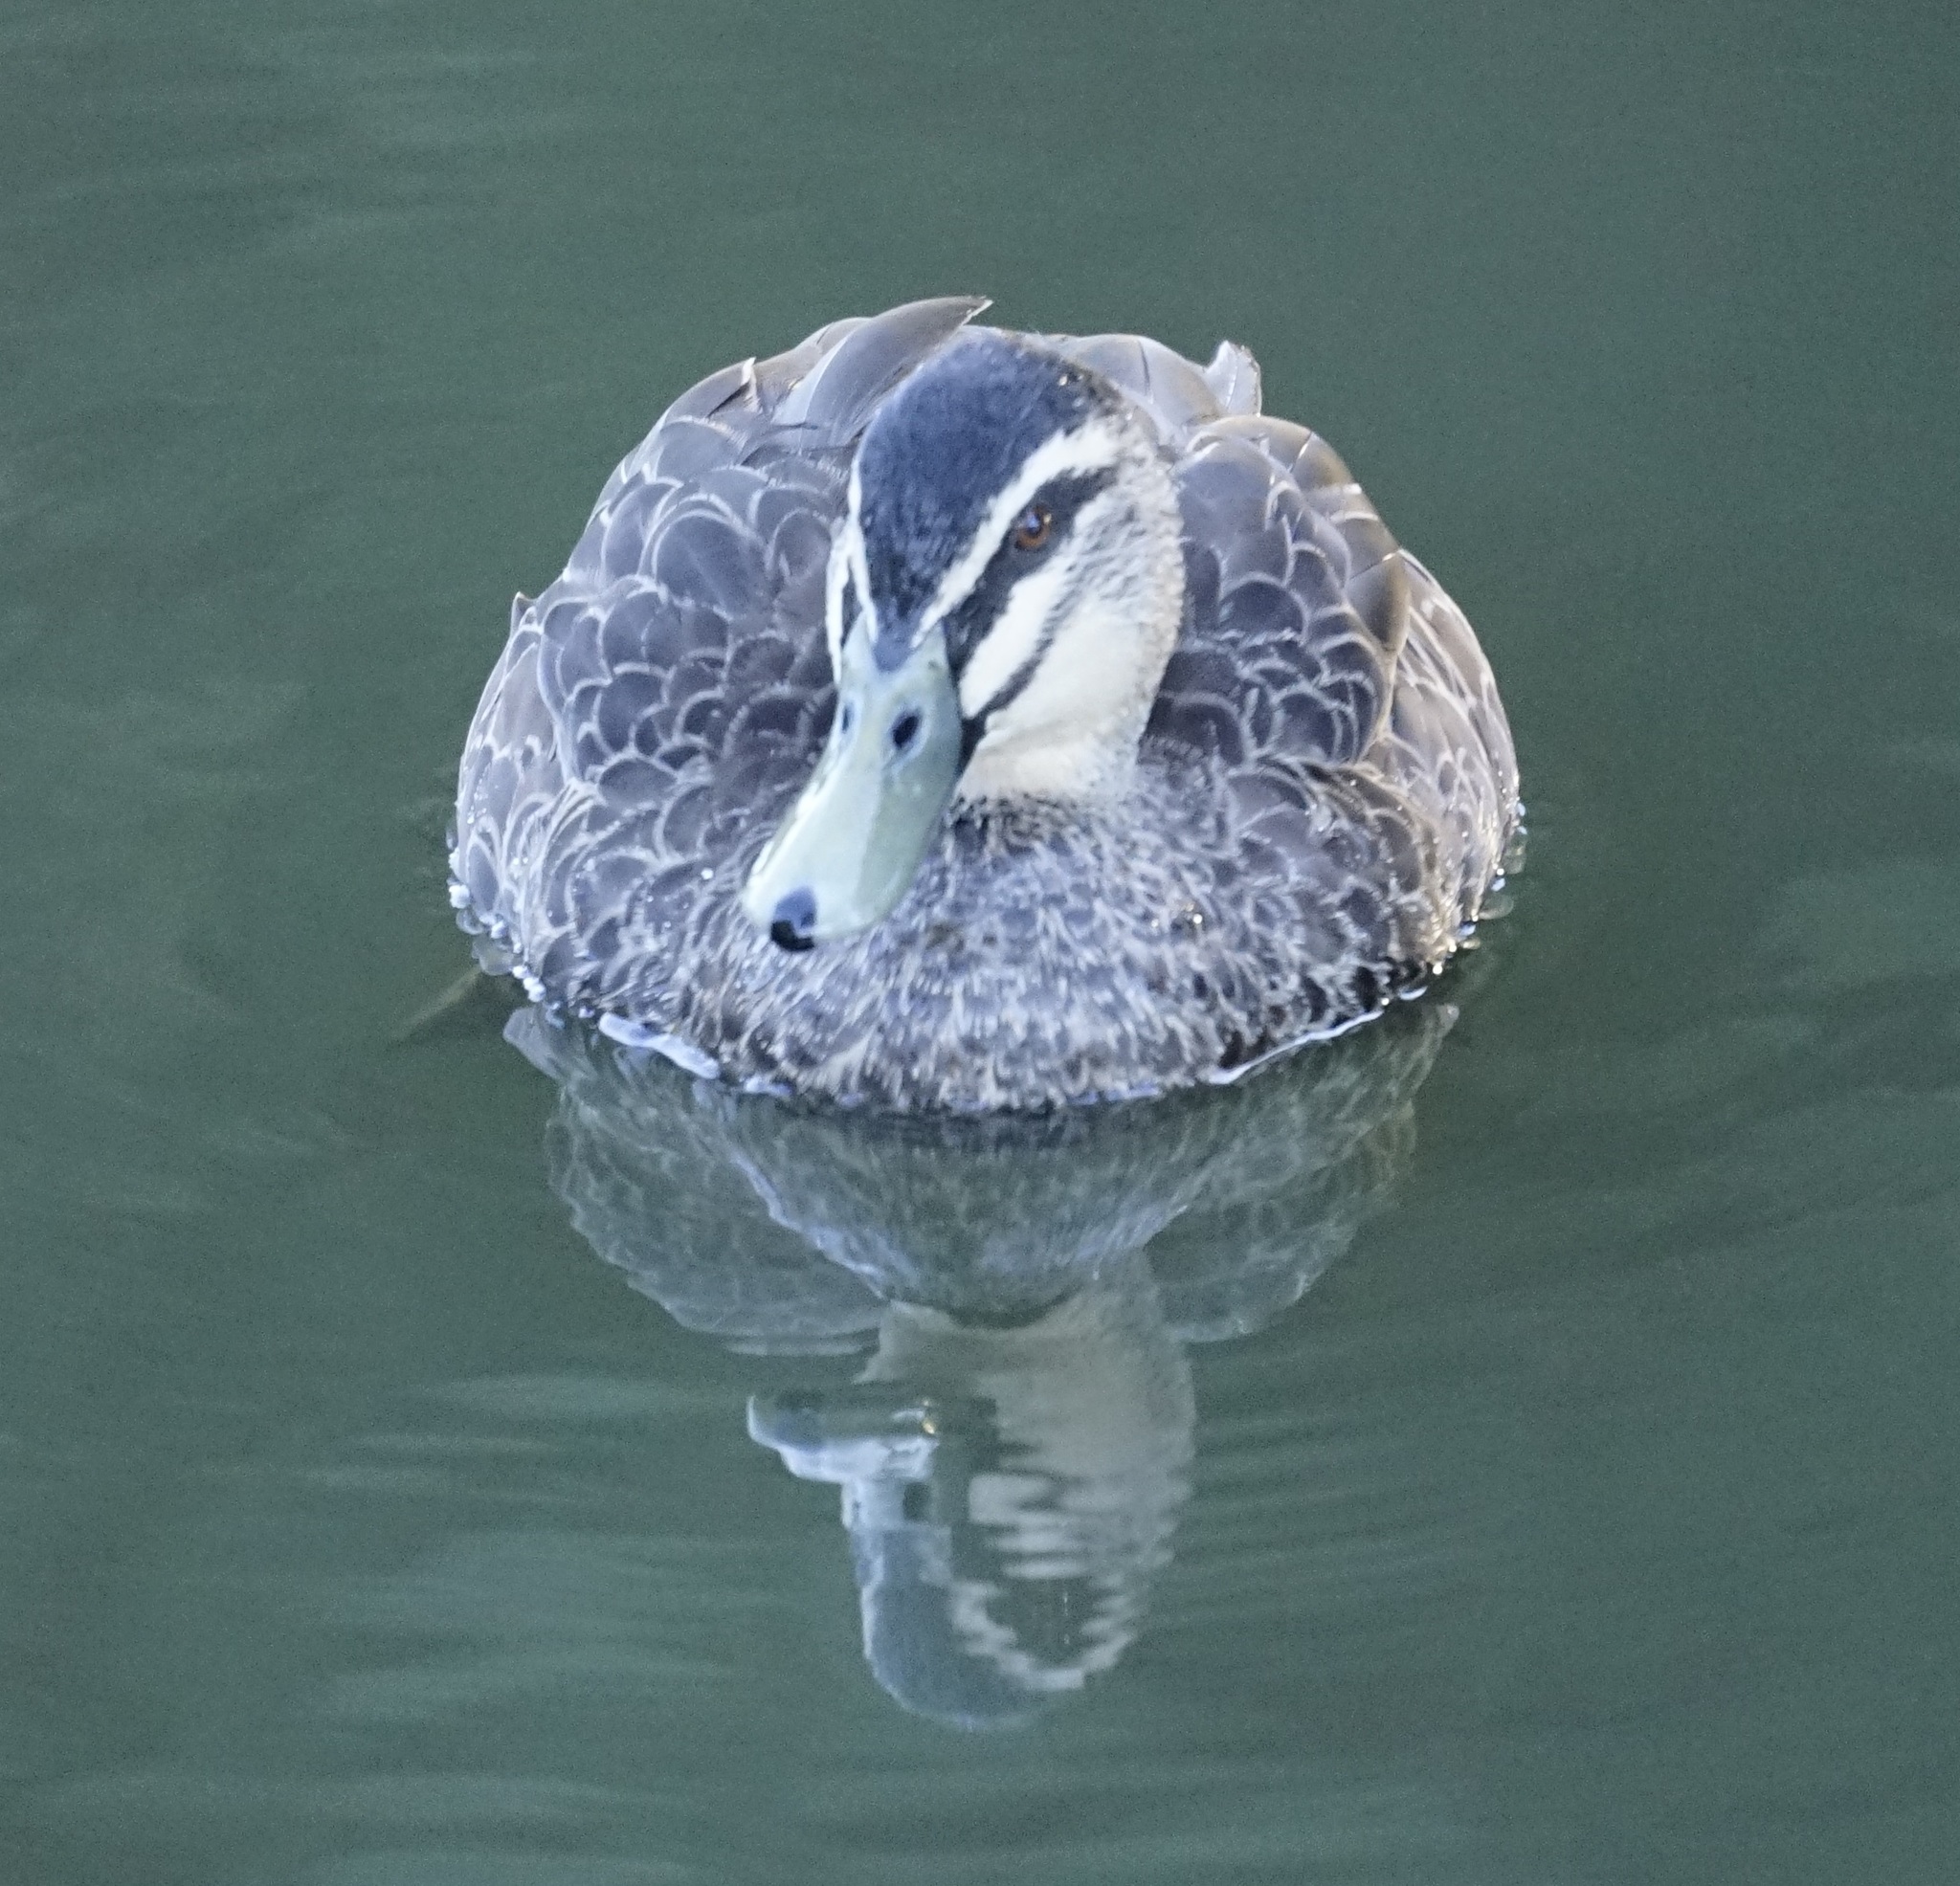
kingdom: Animalia
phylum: Chordata
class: Aves
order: Anseriformes
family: Anatidae
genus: Anas
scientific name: Anas superciliosa
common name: Pacific black duck
